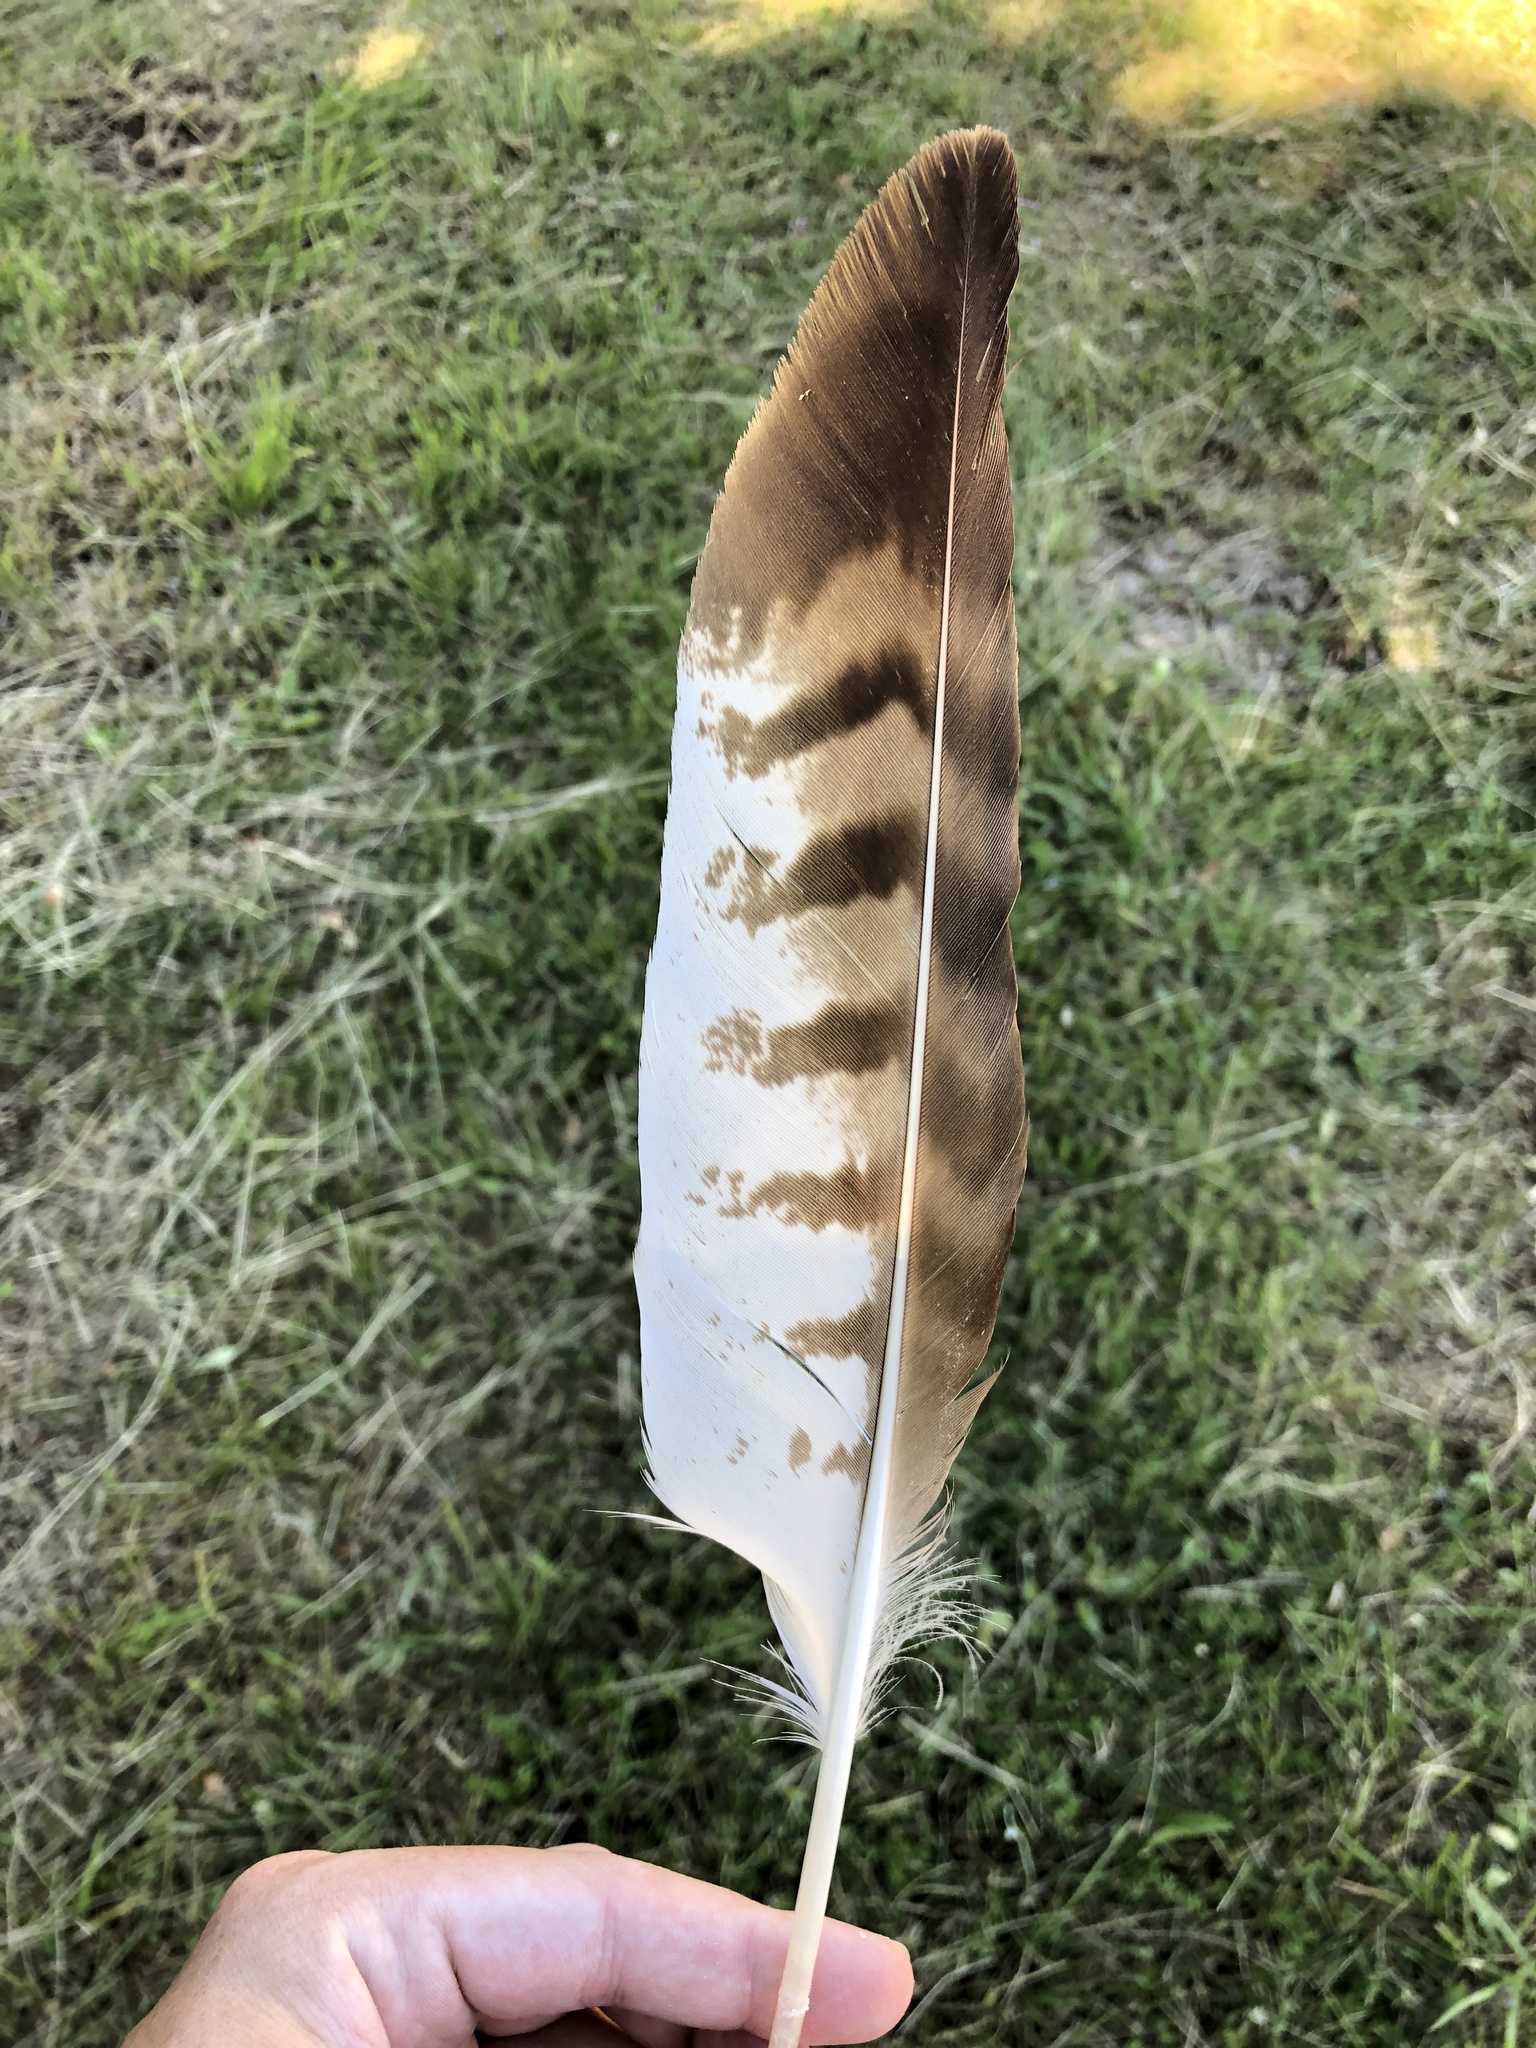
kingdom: Animalia
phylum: Chordata
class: Aves
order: Accipitriformes
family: Accipitridae
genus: Buteo
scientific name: Buteo buteo
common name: Common buzzard
